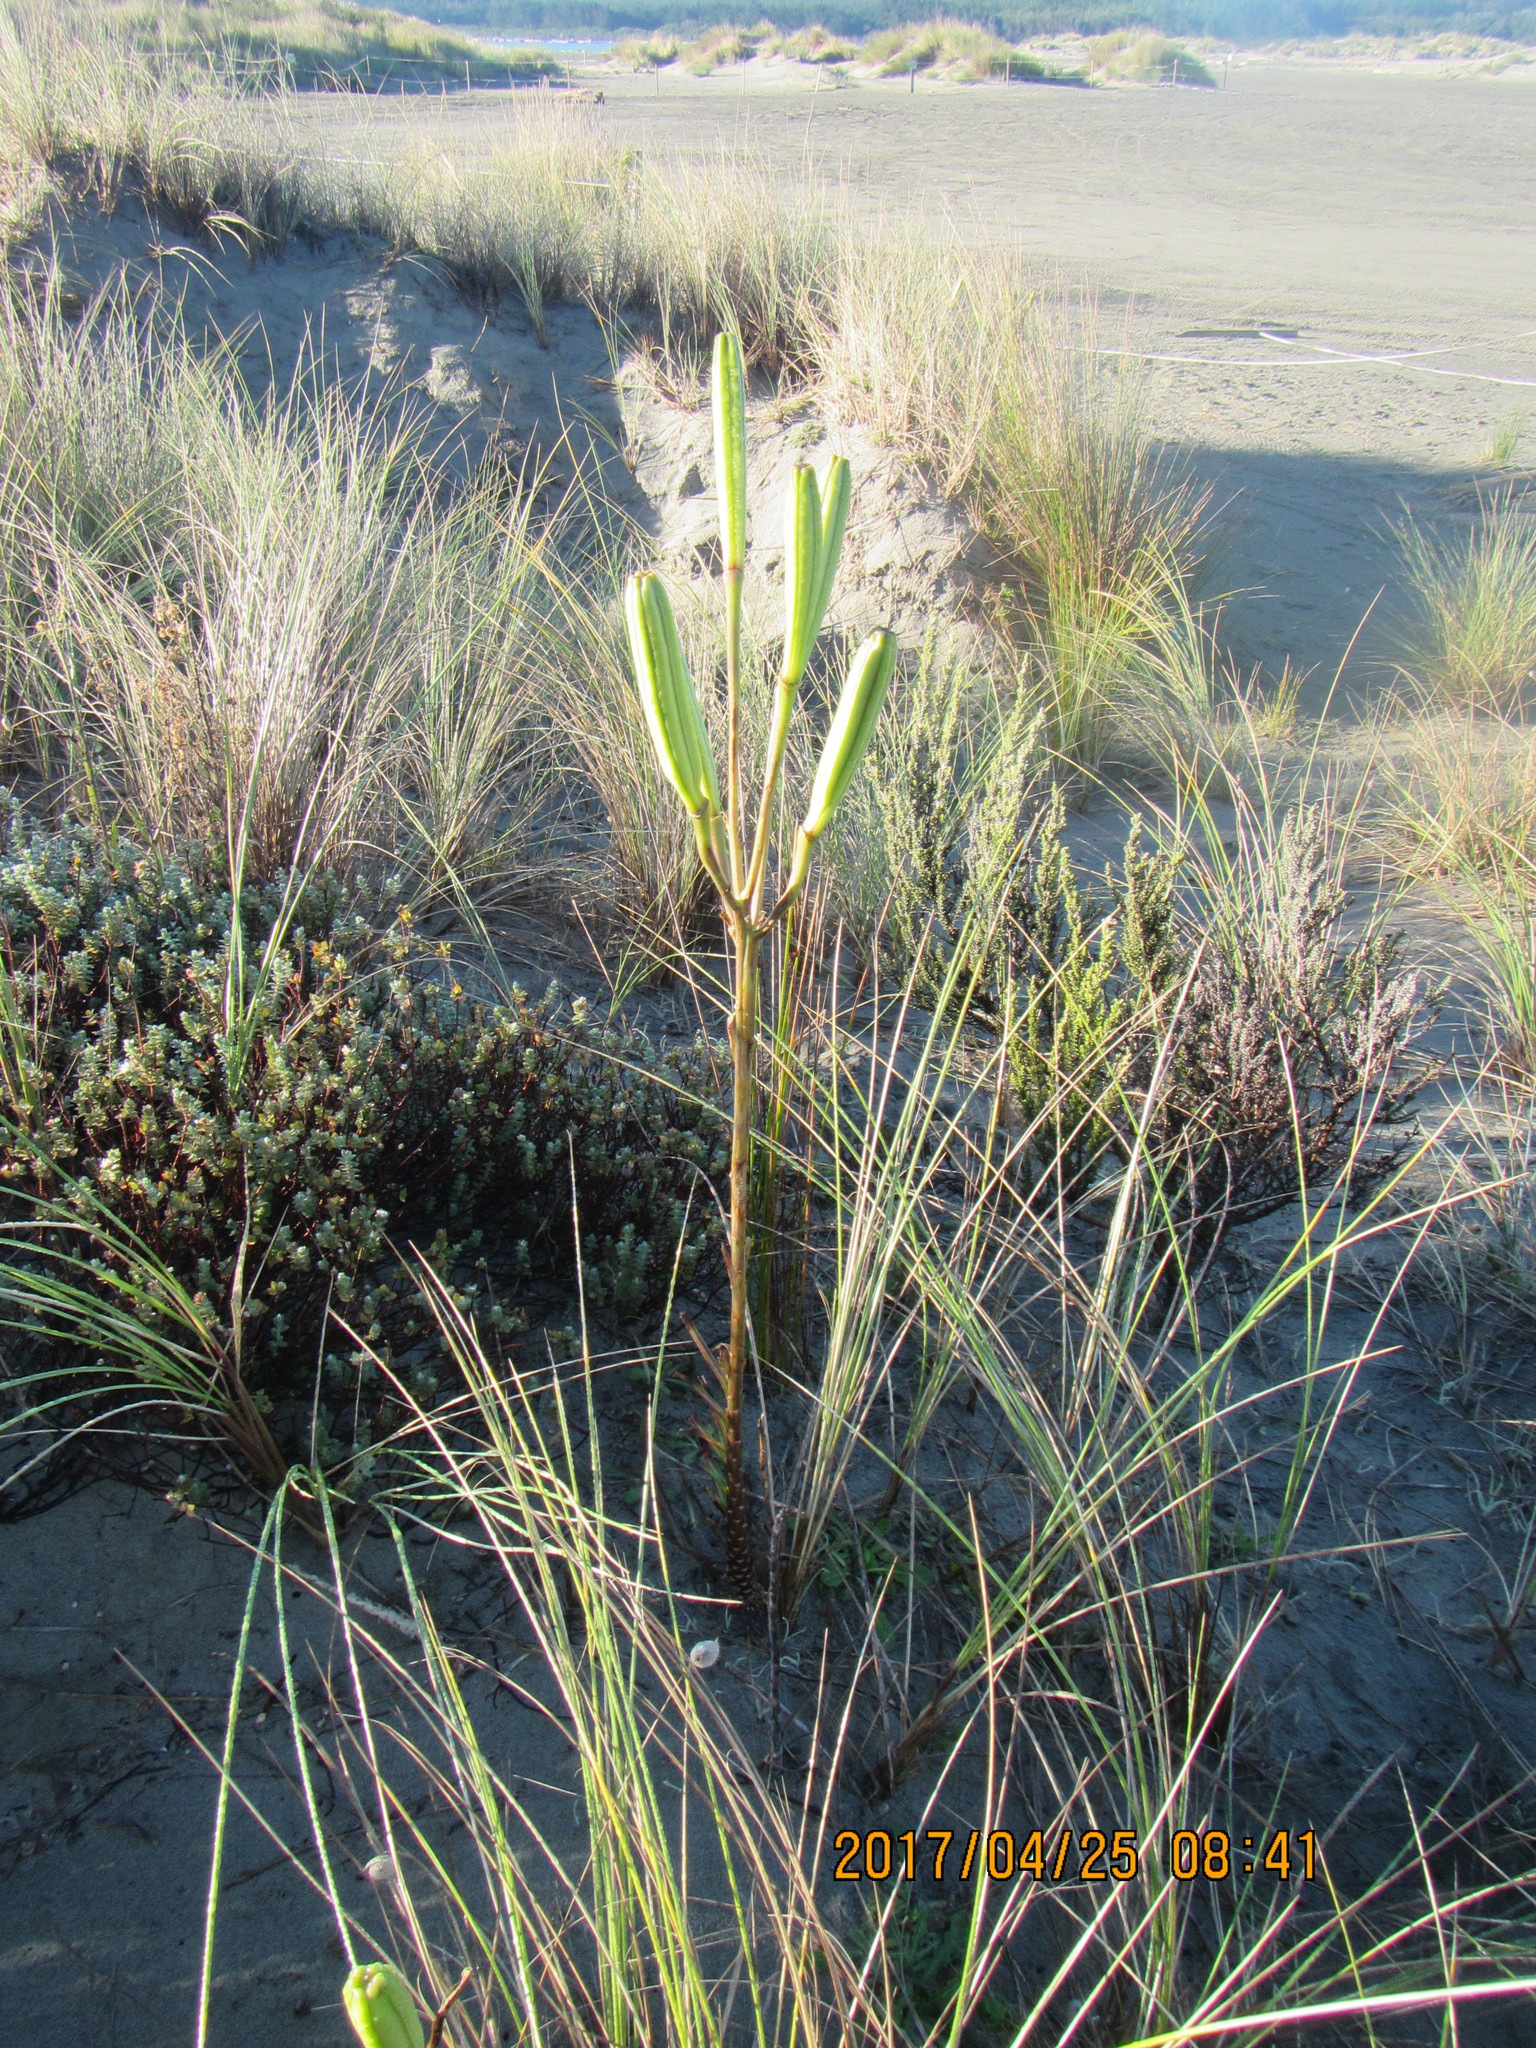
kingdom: Plantae
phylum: Tracheophyta
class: Magnoliopsida
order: Fabales
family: Fabaceae
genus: Lupinus
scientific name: Lupinus arboreus
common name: Yellow bush lupine
